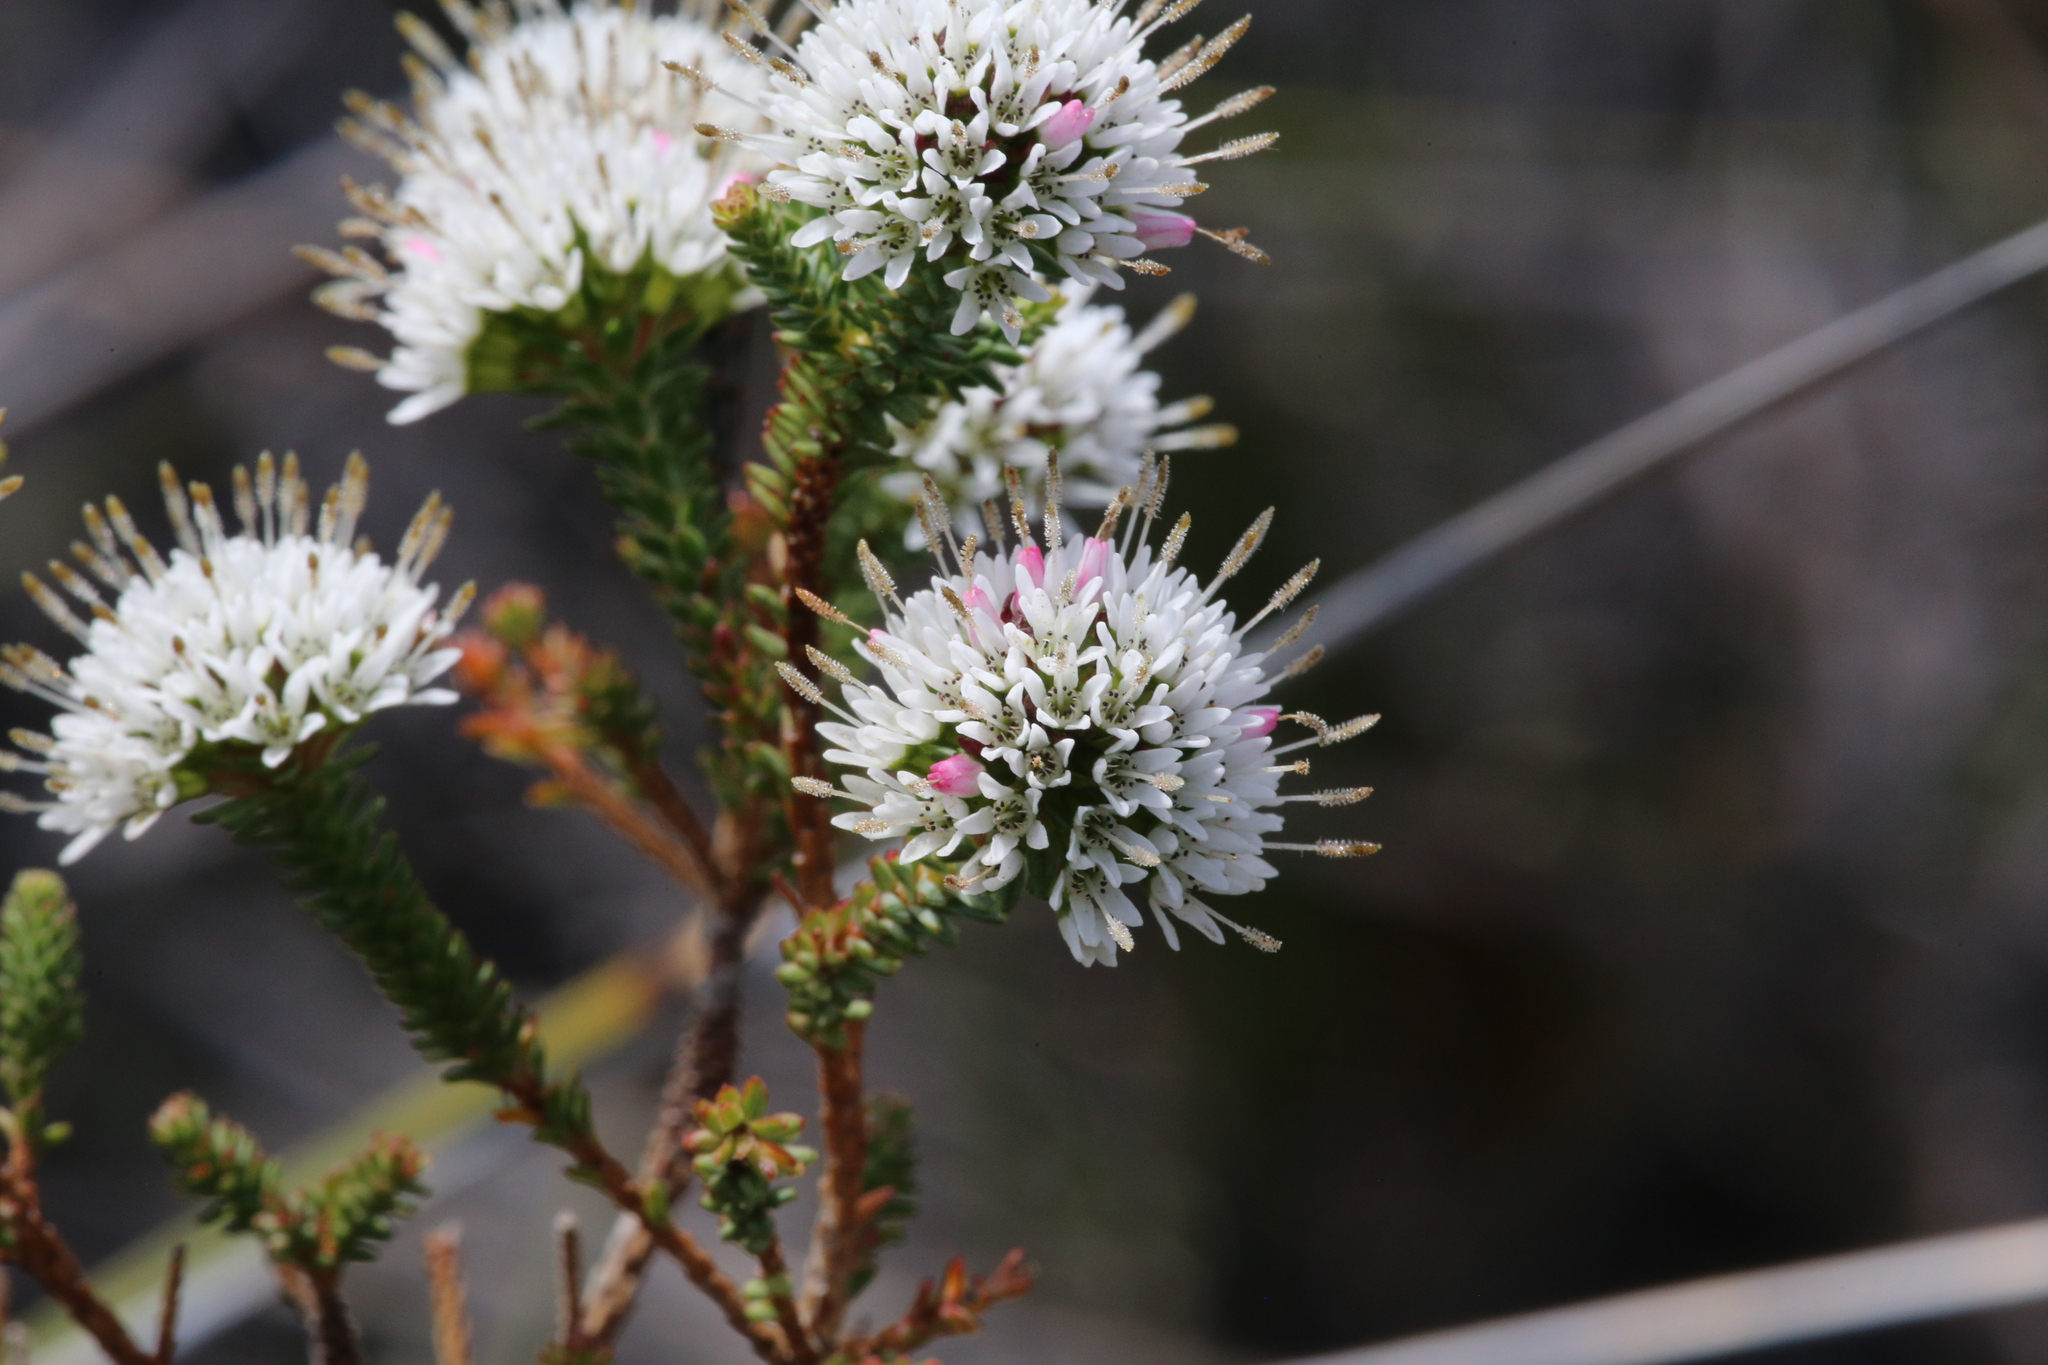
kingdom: Plantae
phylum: Tracheophyta
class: Magnoliopsida
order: Myrtales
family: Myrtaceae
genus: Darwinia
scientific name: Darwinia vestita
